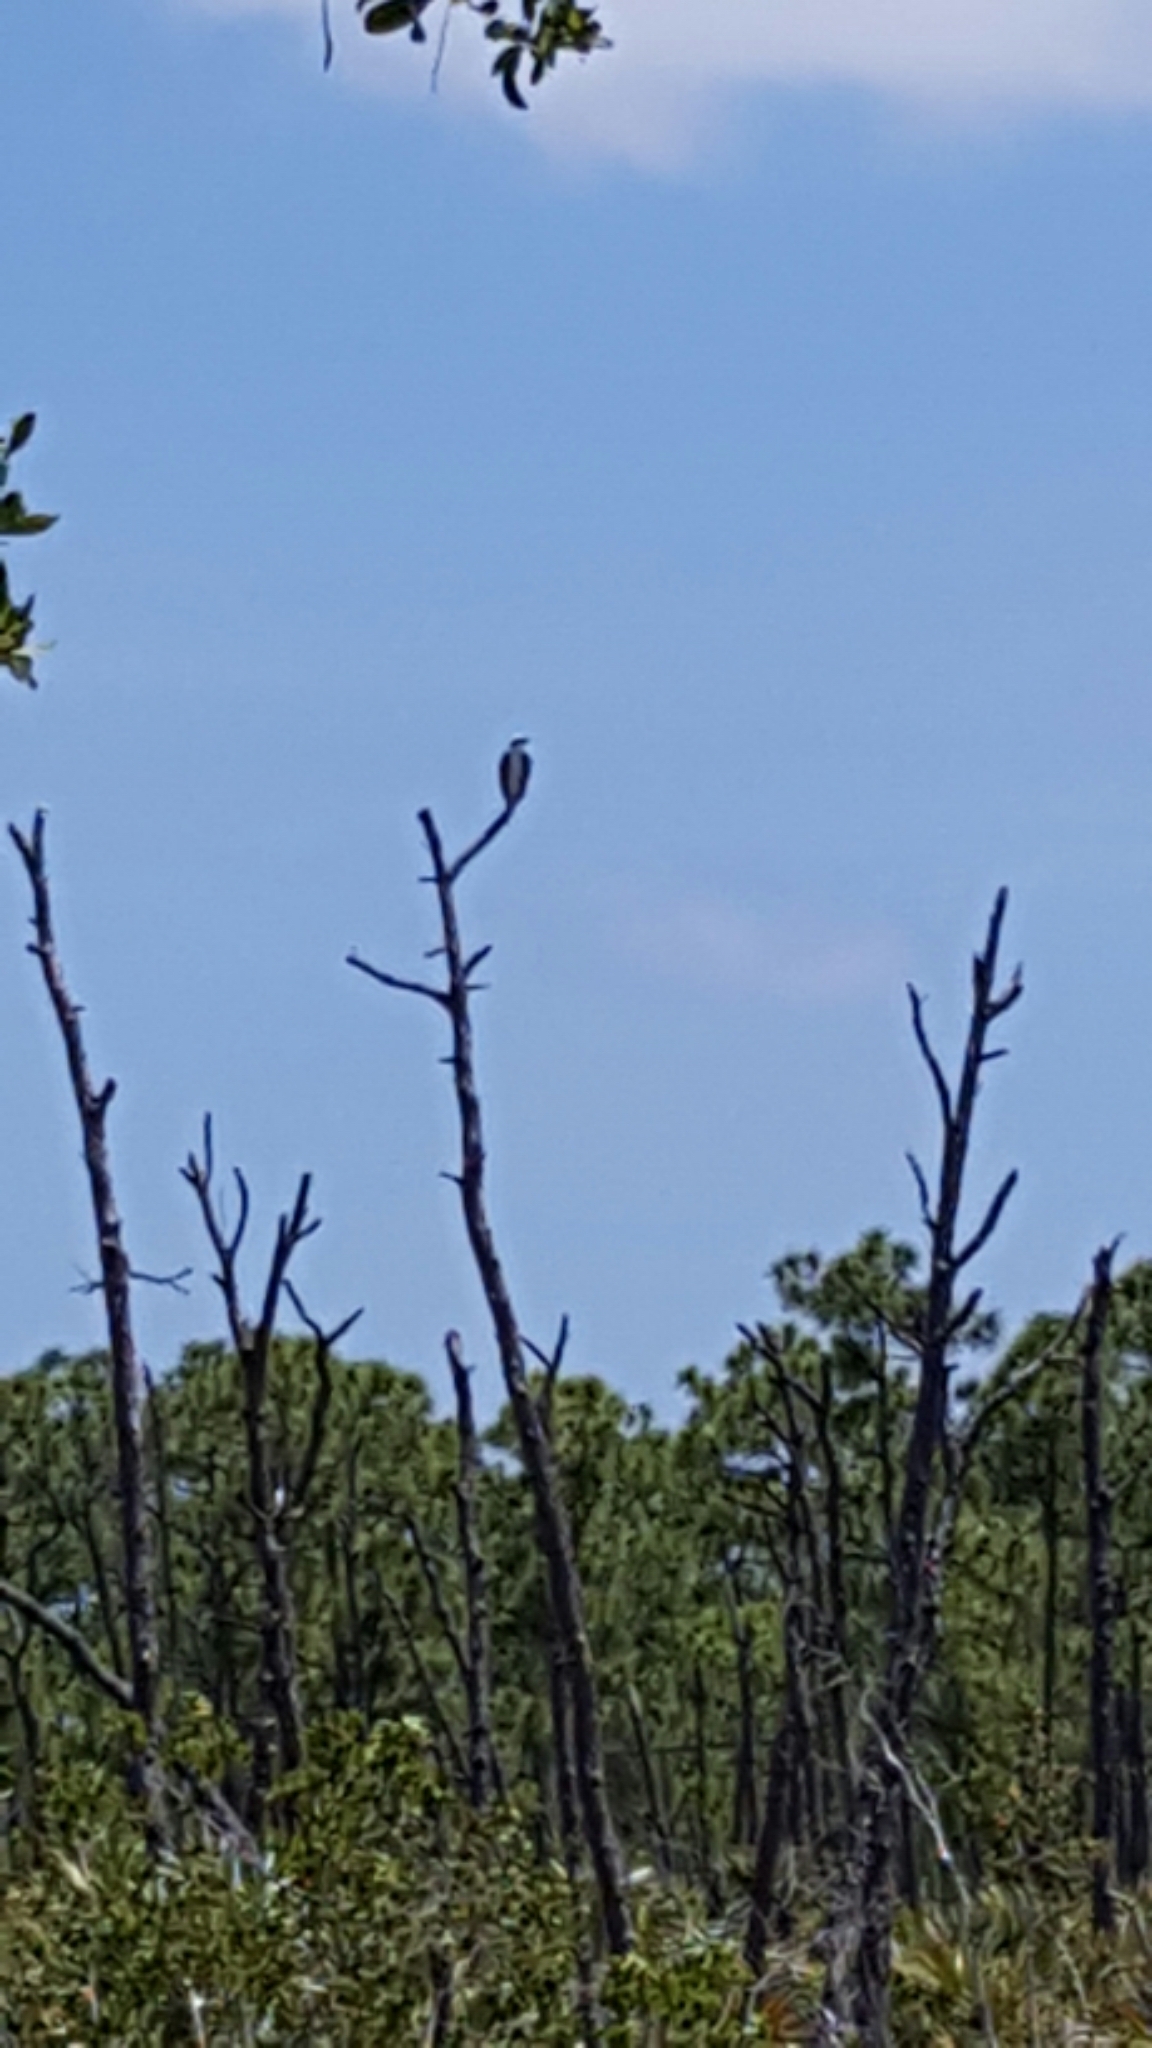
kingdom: Animalia
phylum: Chordata
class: Aves
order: Accipitriformes
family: Pandionidae
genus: Pandion
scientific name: Pandion haliaetus
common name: Osprey
